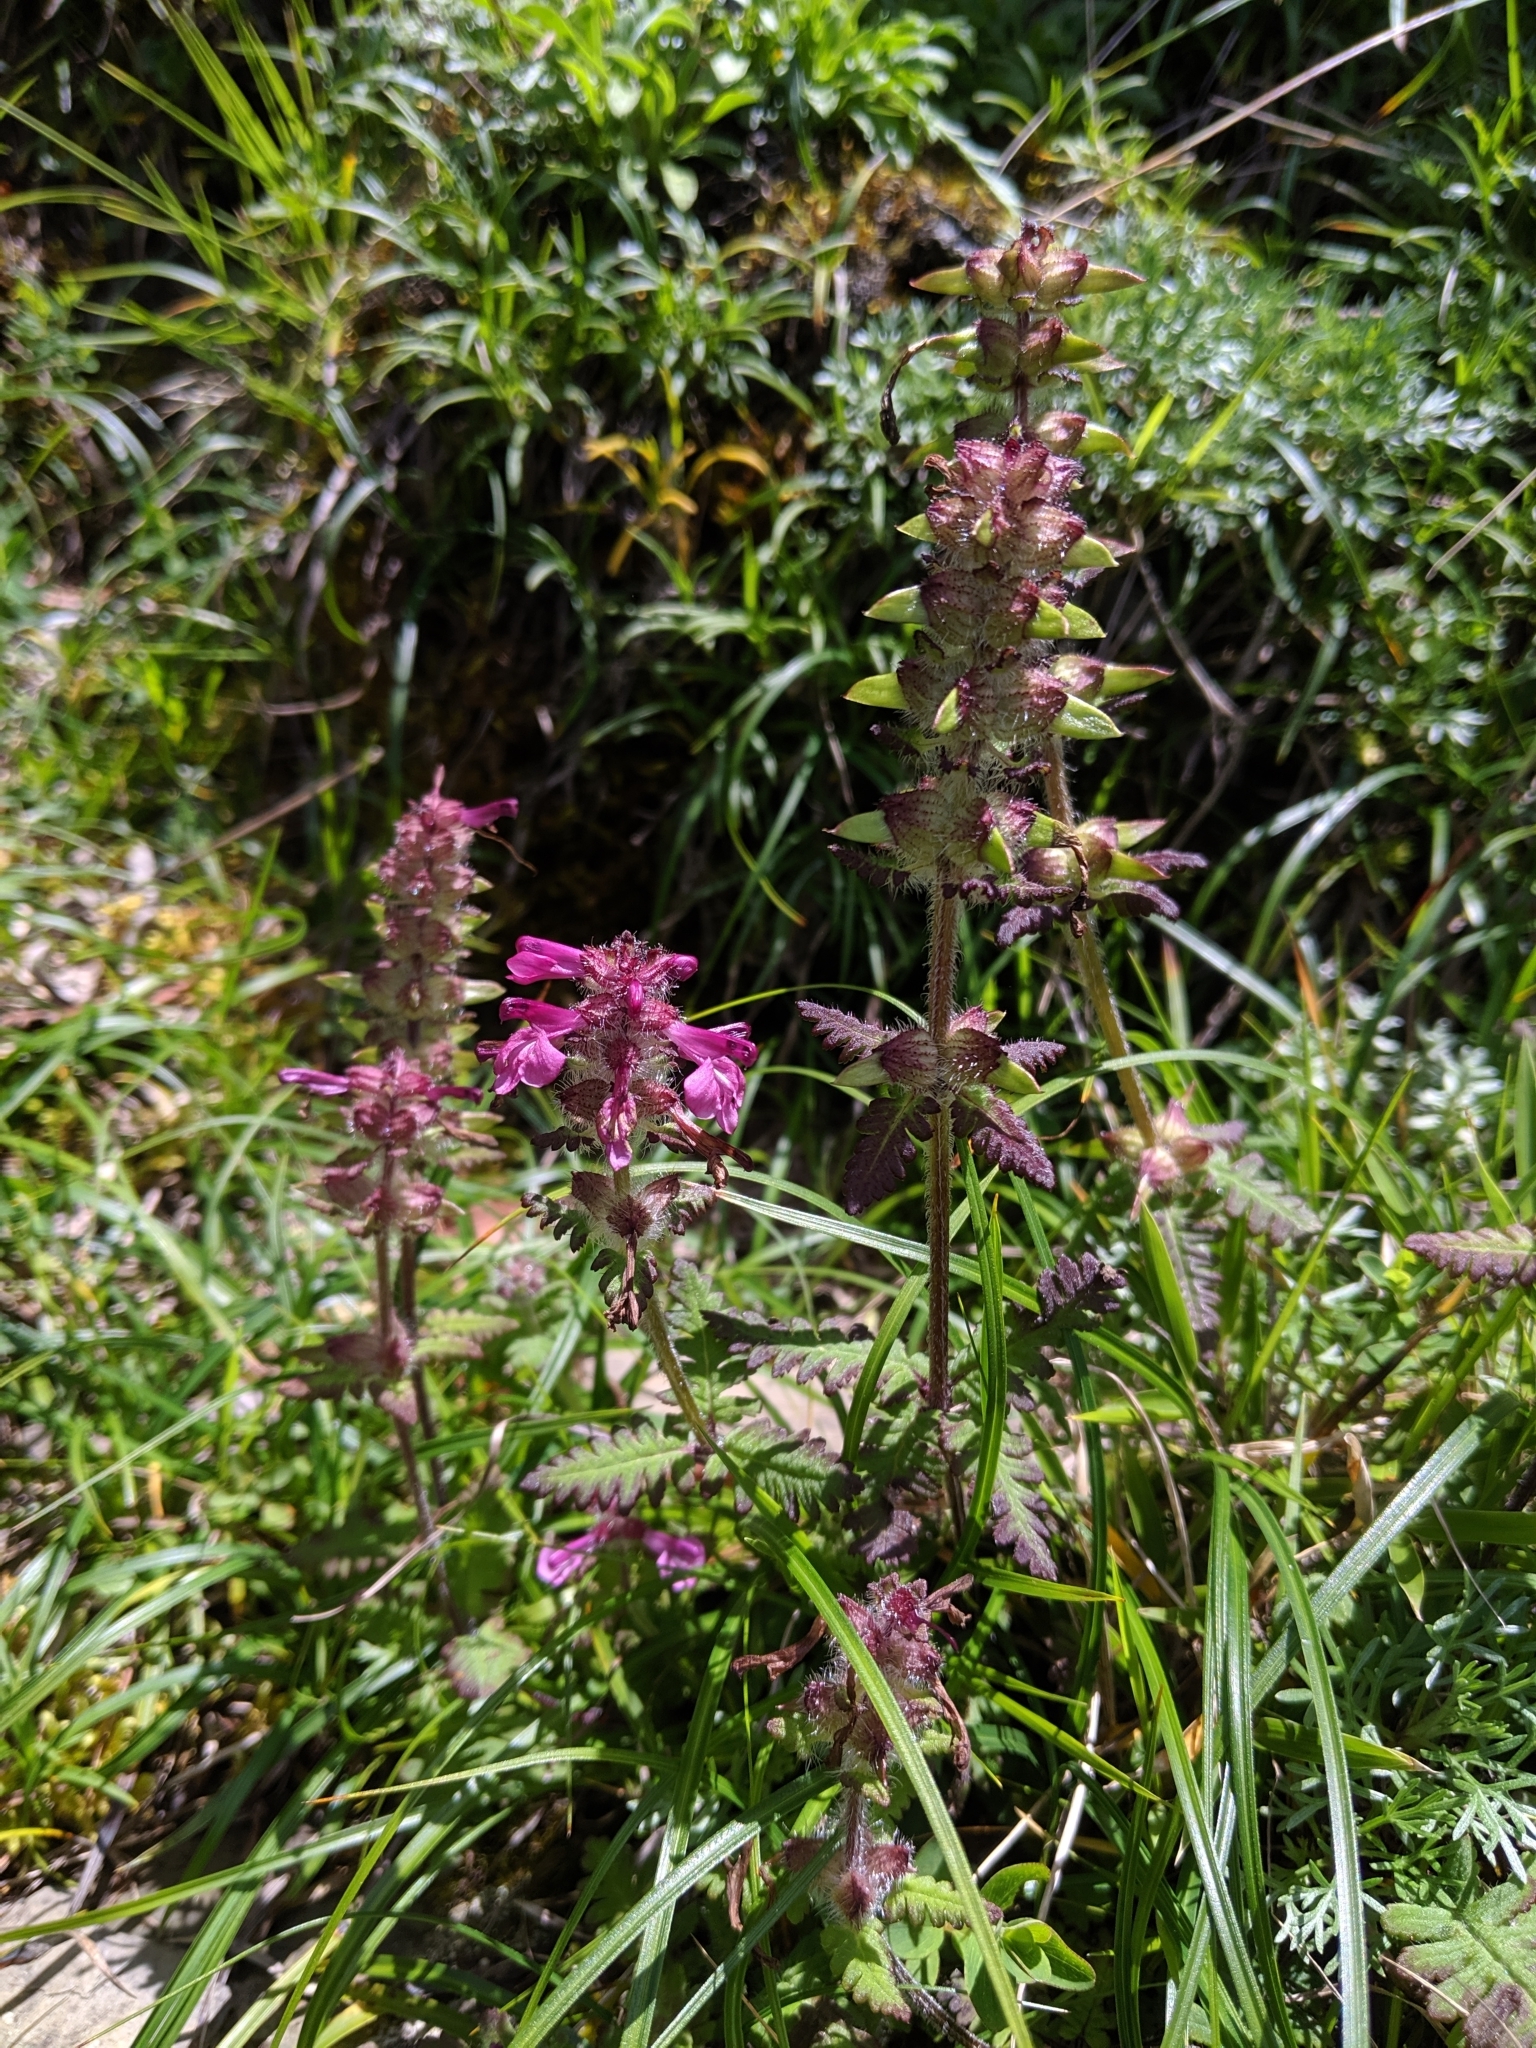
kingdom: Plantae
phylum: Tracheophyta
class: Magnoliopsida
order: Lamiales
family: Orobanchaceae
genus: Pedicularis
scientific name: Pedicularis refracta
